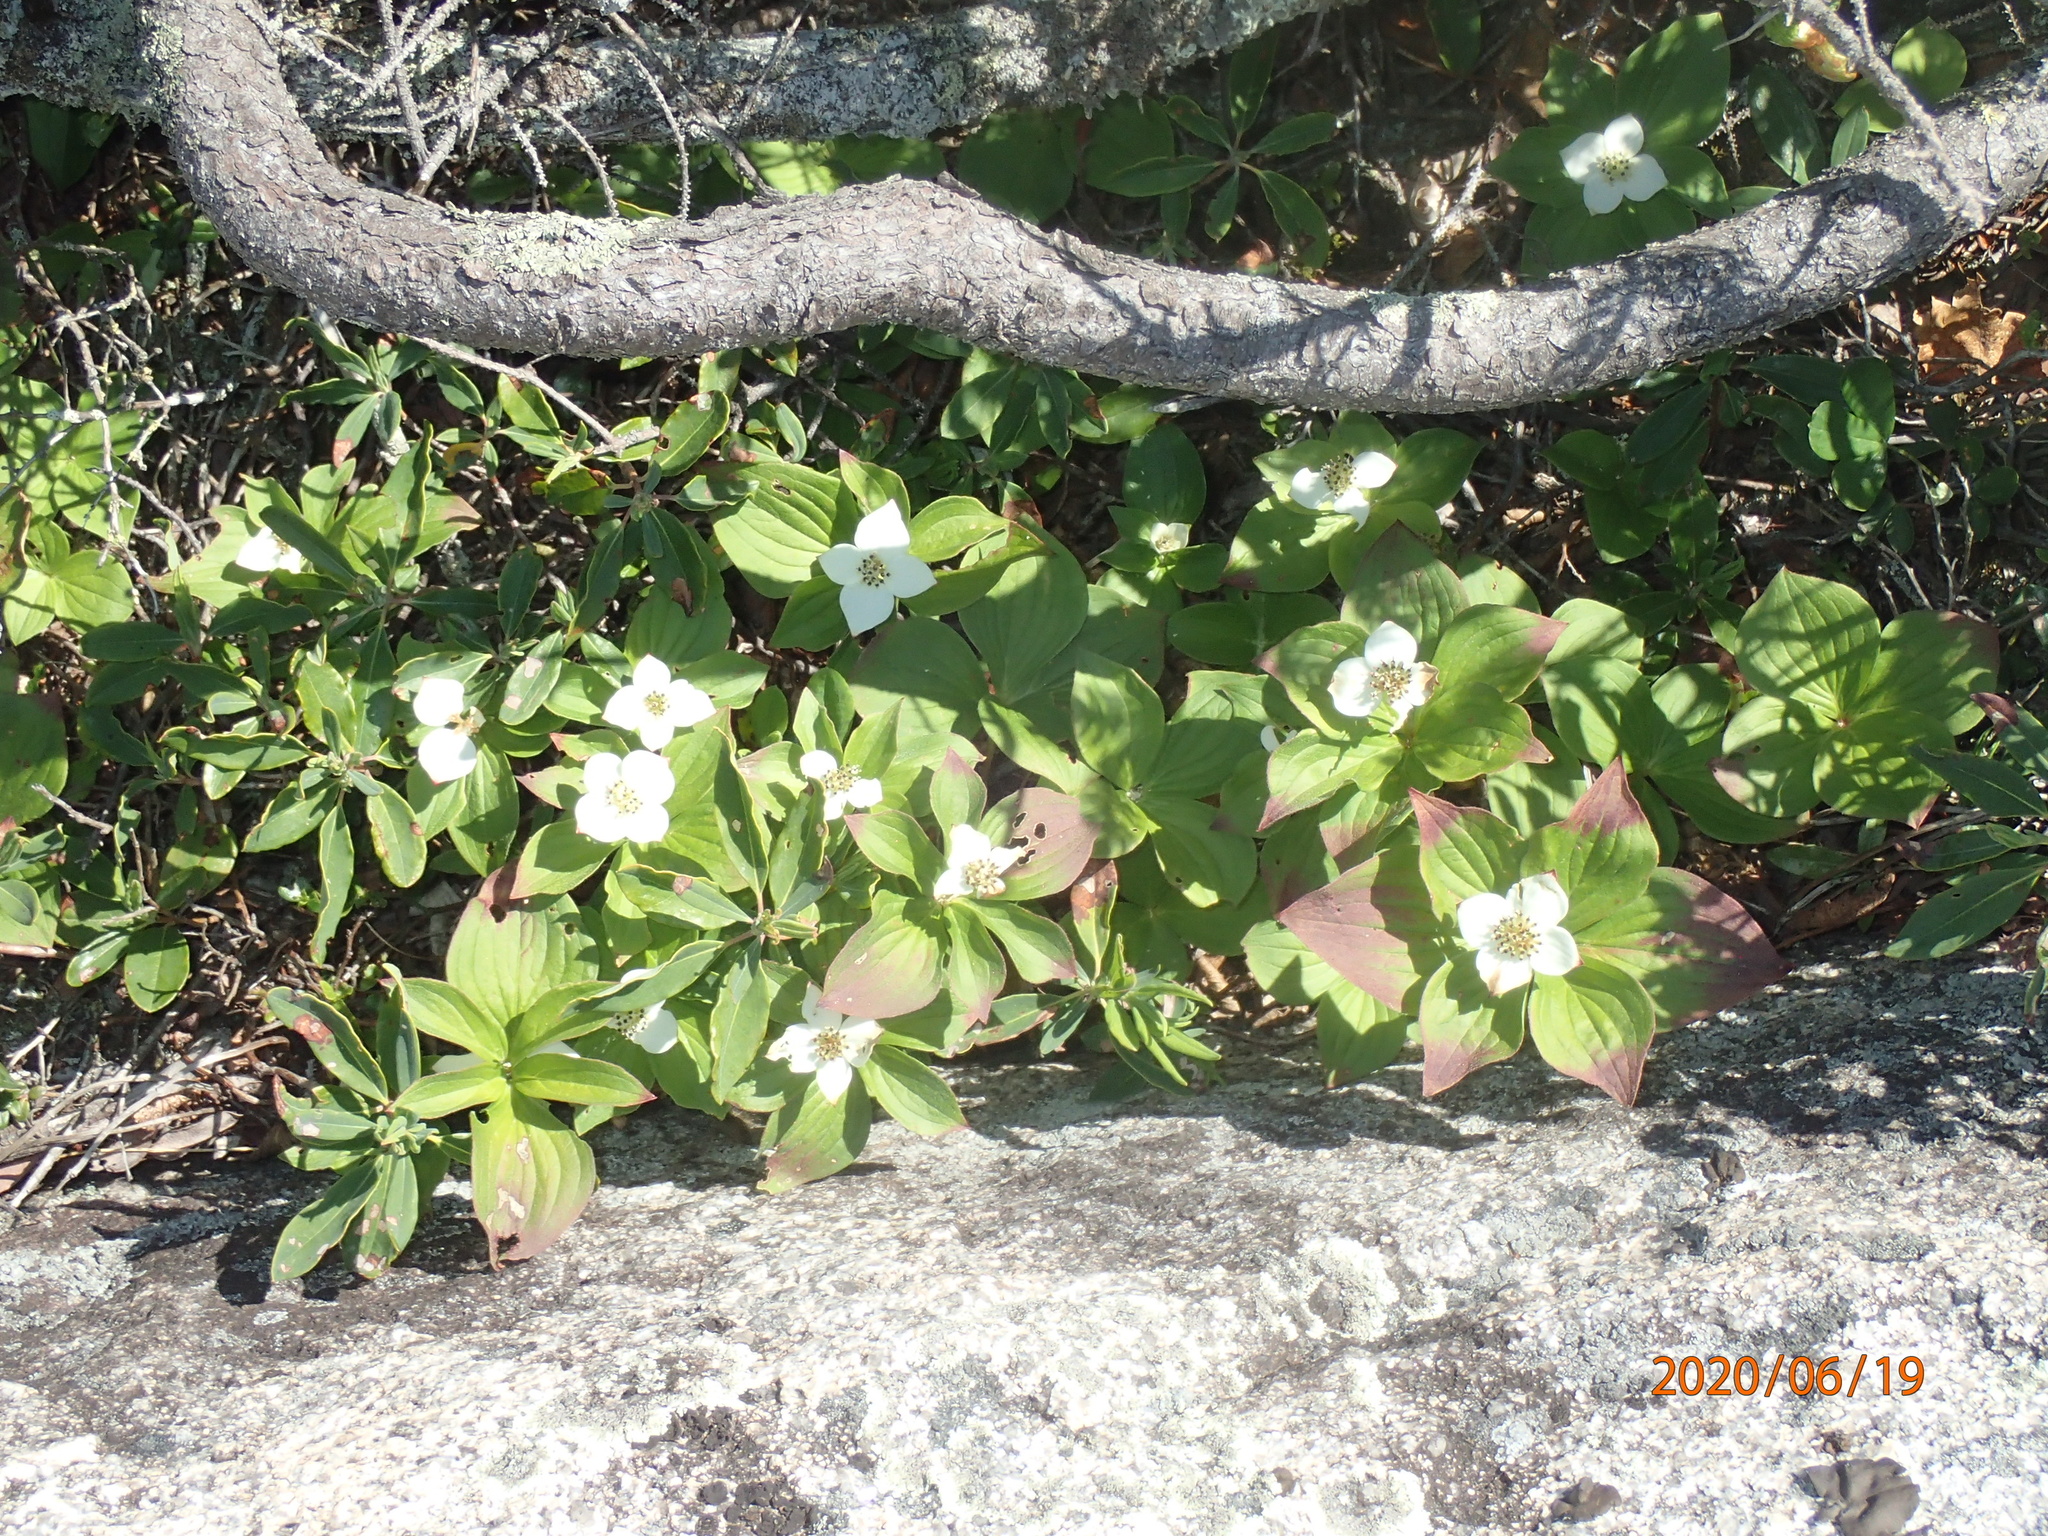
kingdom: Plantae
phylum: Tracheophyta
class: Magnoliopsida
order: Cornales
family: Cornaceae
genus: Cornus
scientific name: Cornus canadensis
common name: Creeping dogwood
